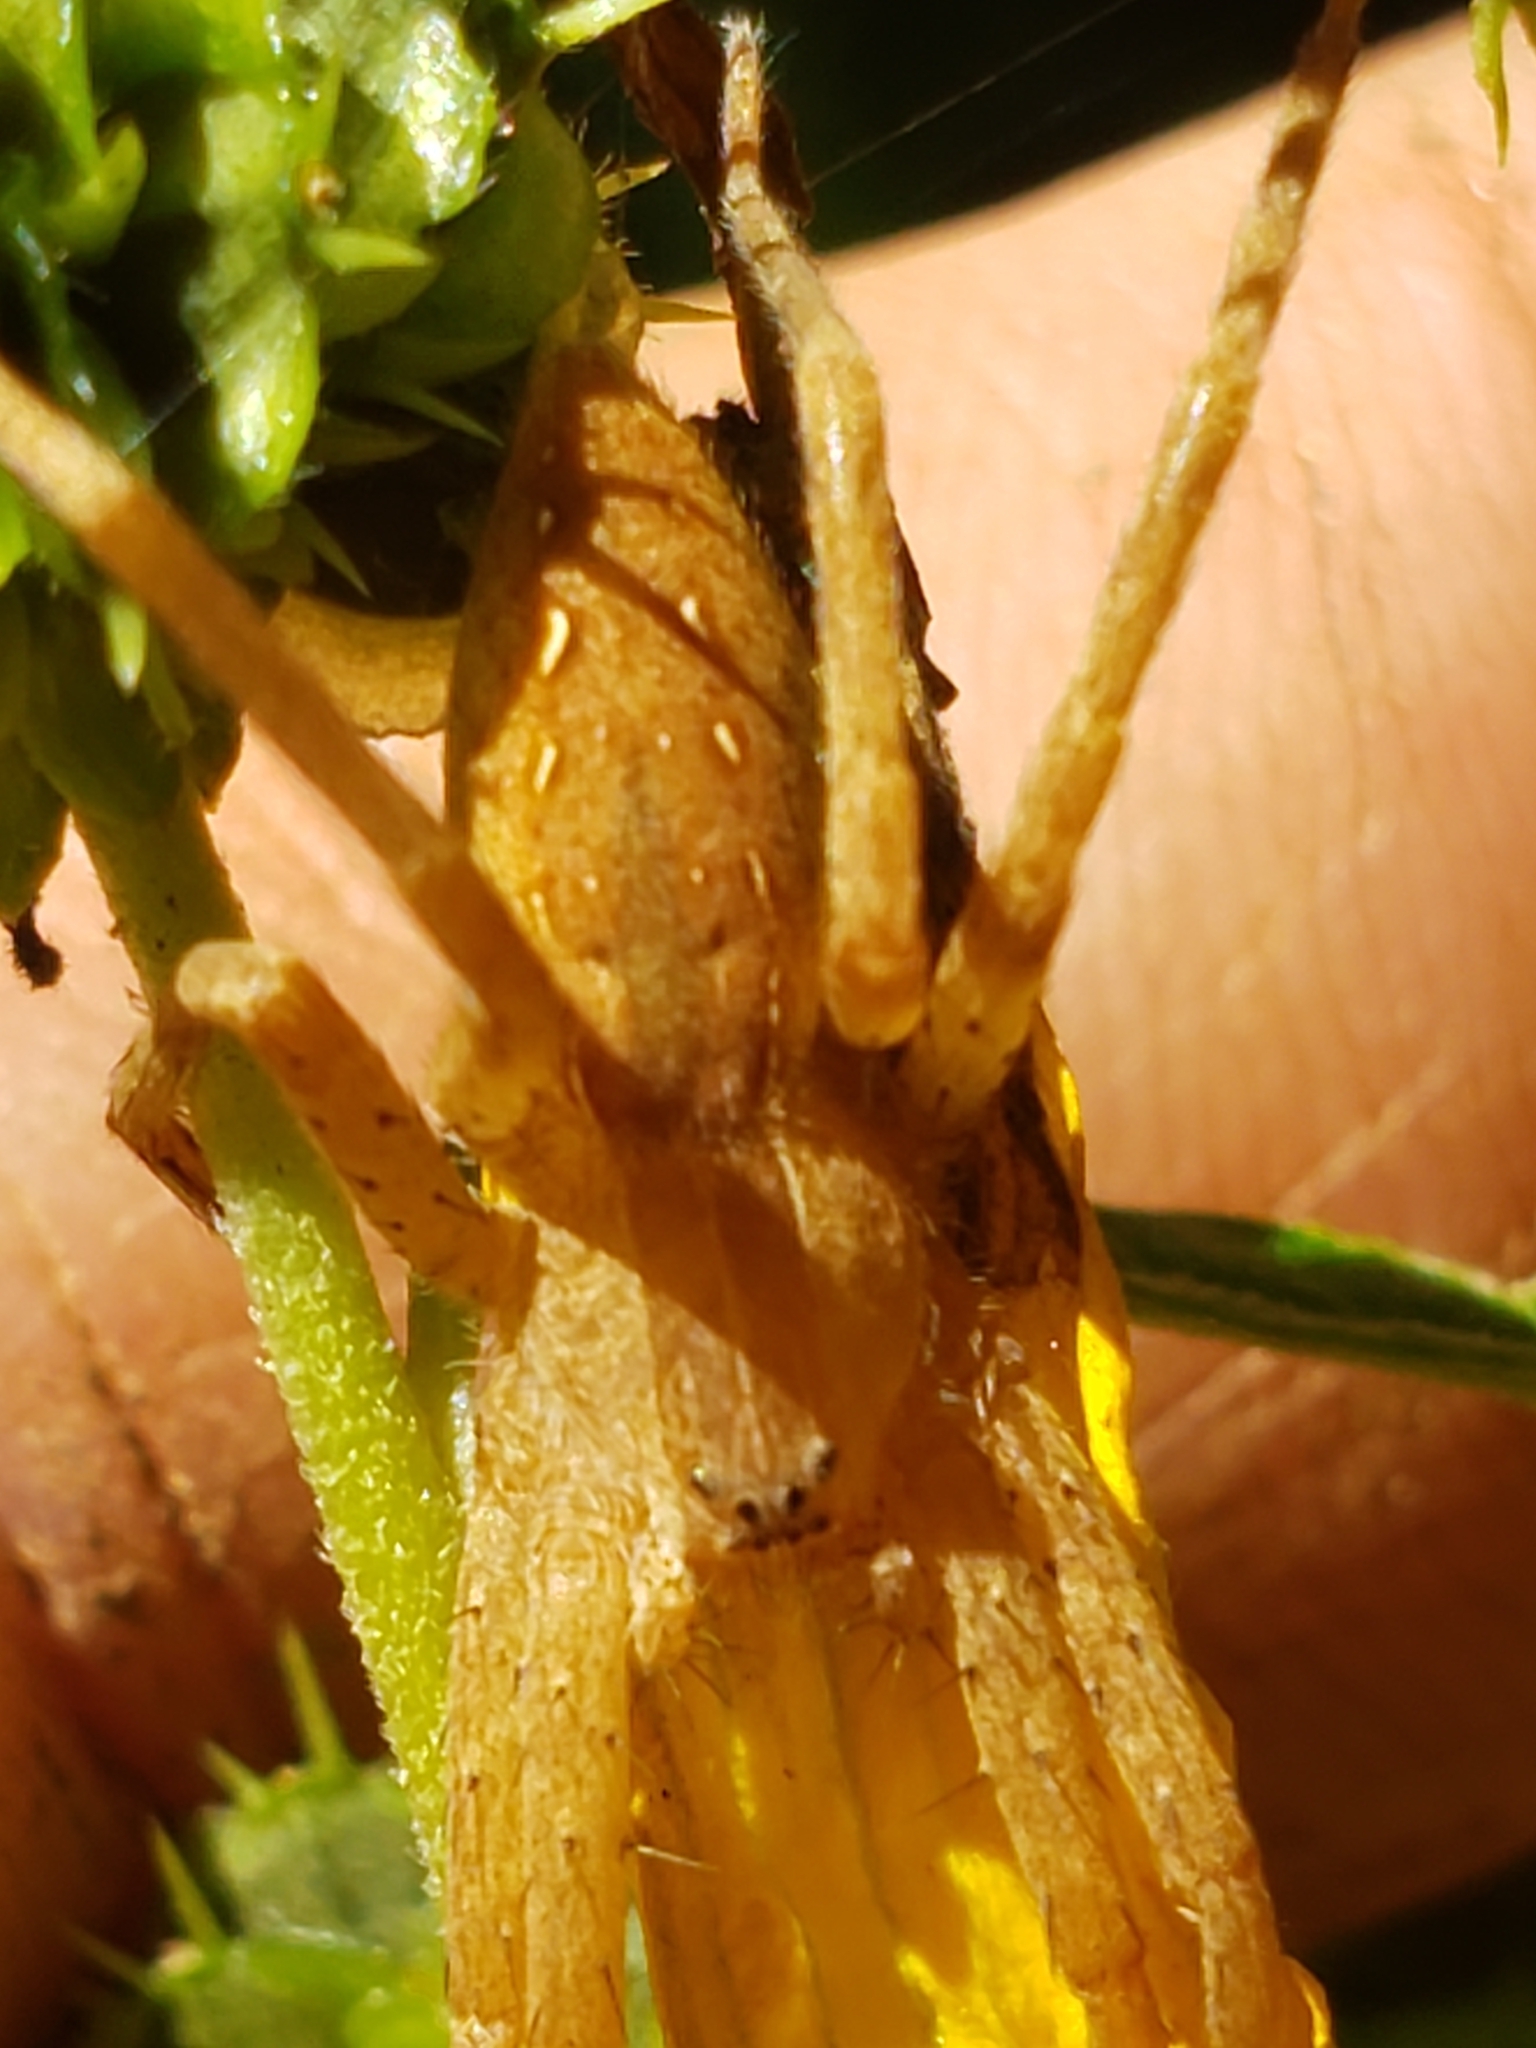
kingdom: Animalia
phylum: Arthropoda
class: Arachnida
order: Araneae
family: Pisauridae
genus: Pisaurina
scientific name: Pisaurina mira
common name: American nursery web spider
